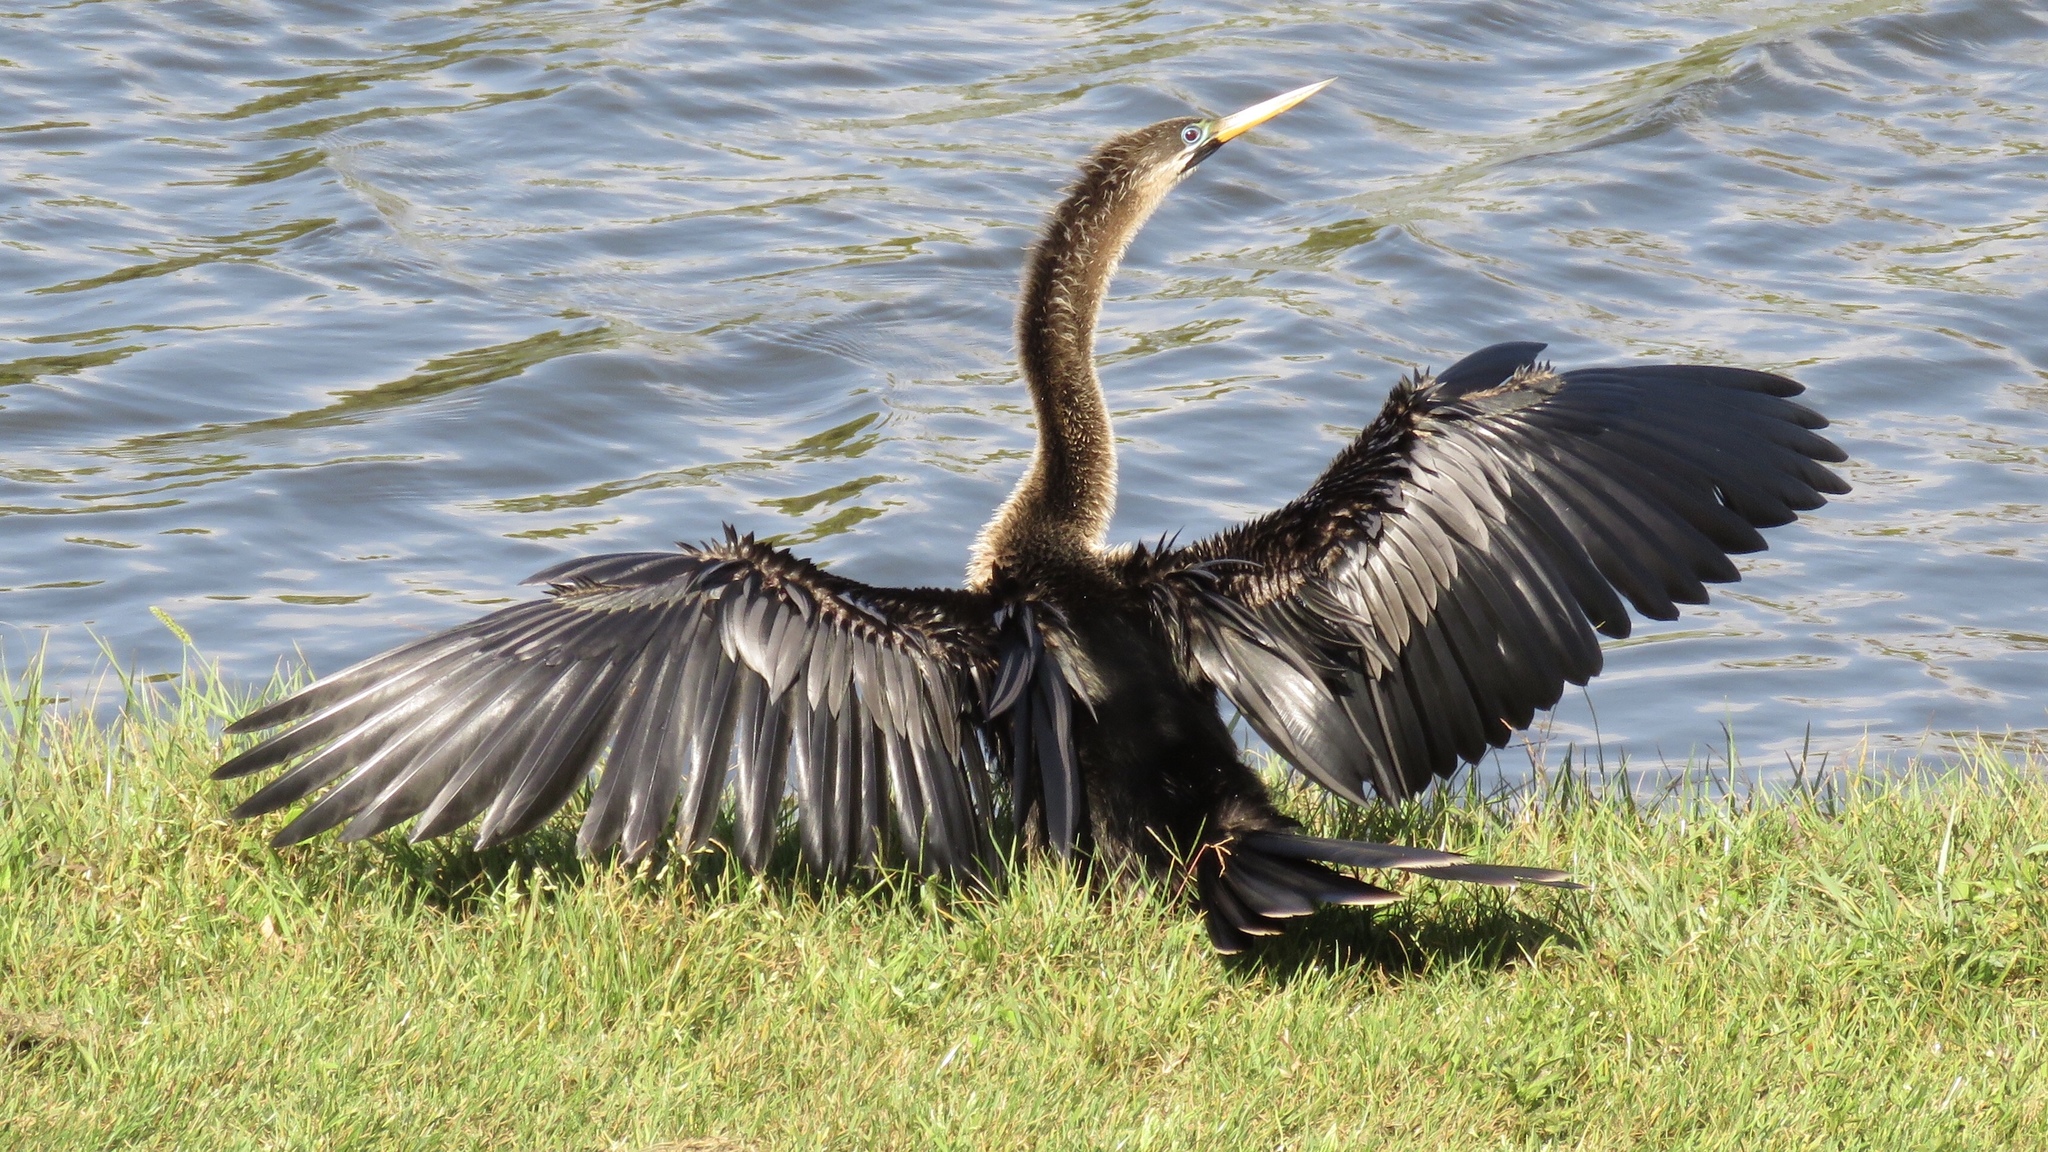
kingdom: Animalia
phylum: Chordata
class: Aves
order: Suliformes
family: Anhingidae
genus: Anhinga
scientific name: Anhinga anhinga
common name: Anhinga
